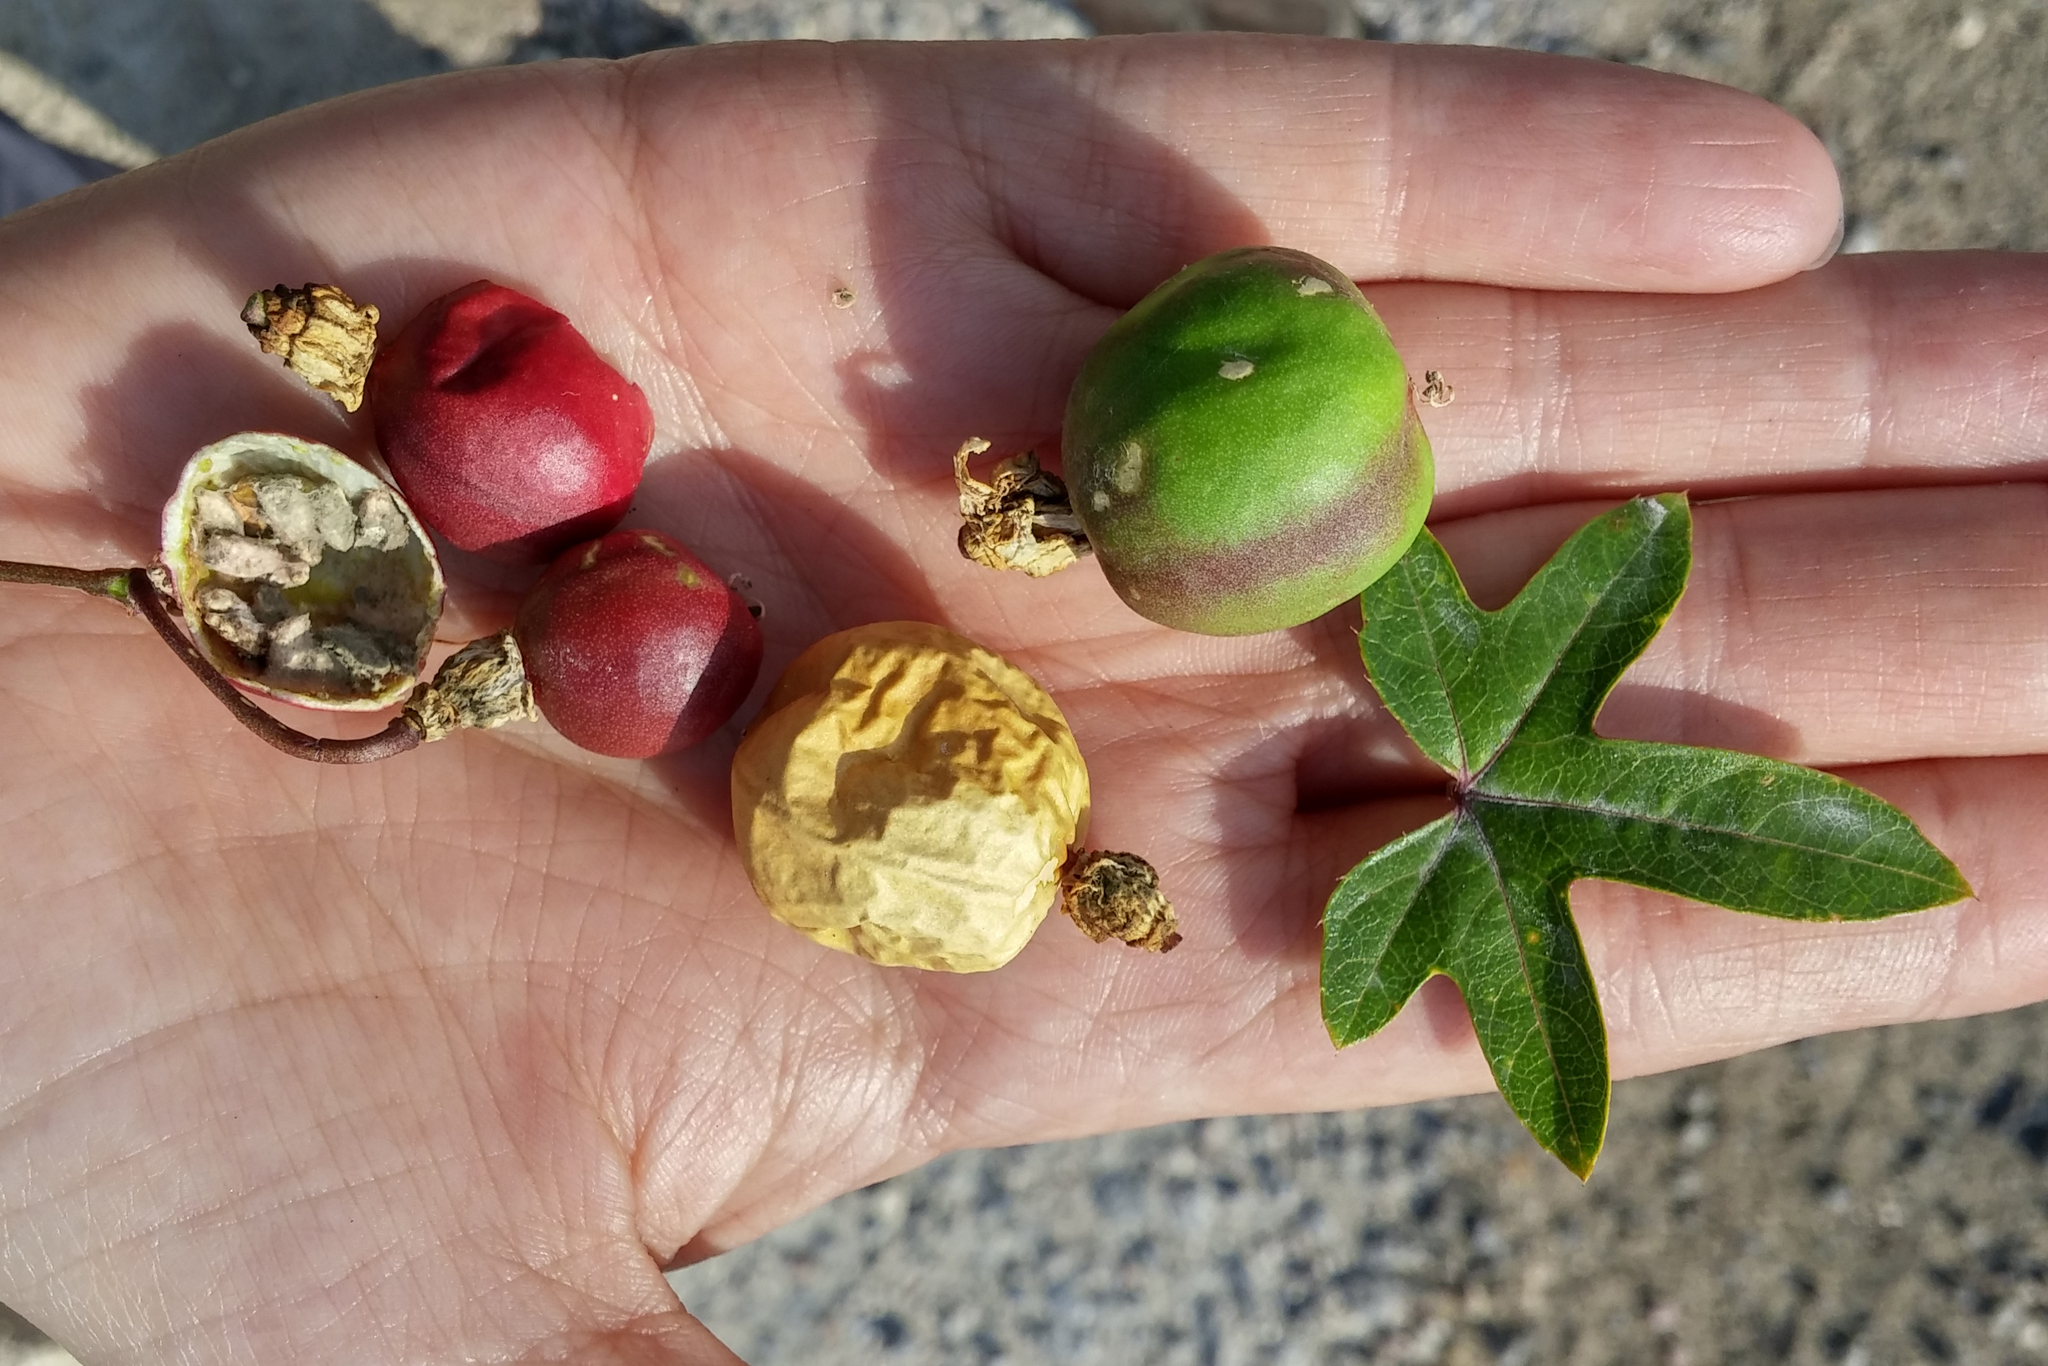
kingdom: Plantae
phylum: Tracheophyta
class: Magnoliopsida
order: Malpighiales
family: Passifloraceae
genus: Passiflora
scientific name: Passiflora ciliata
